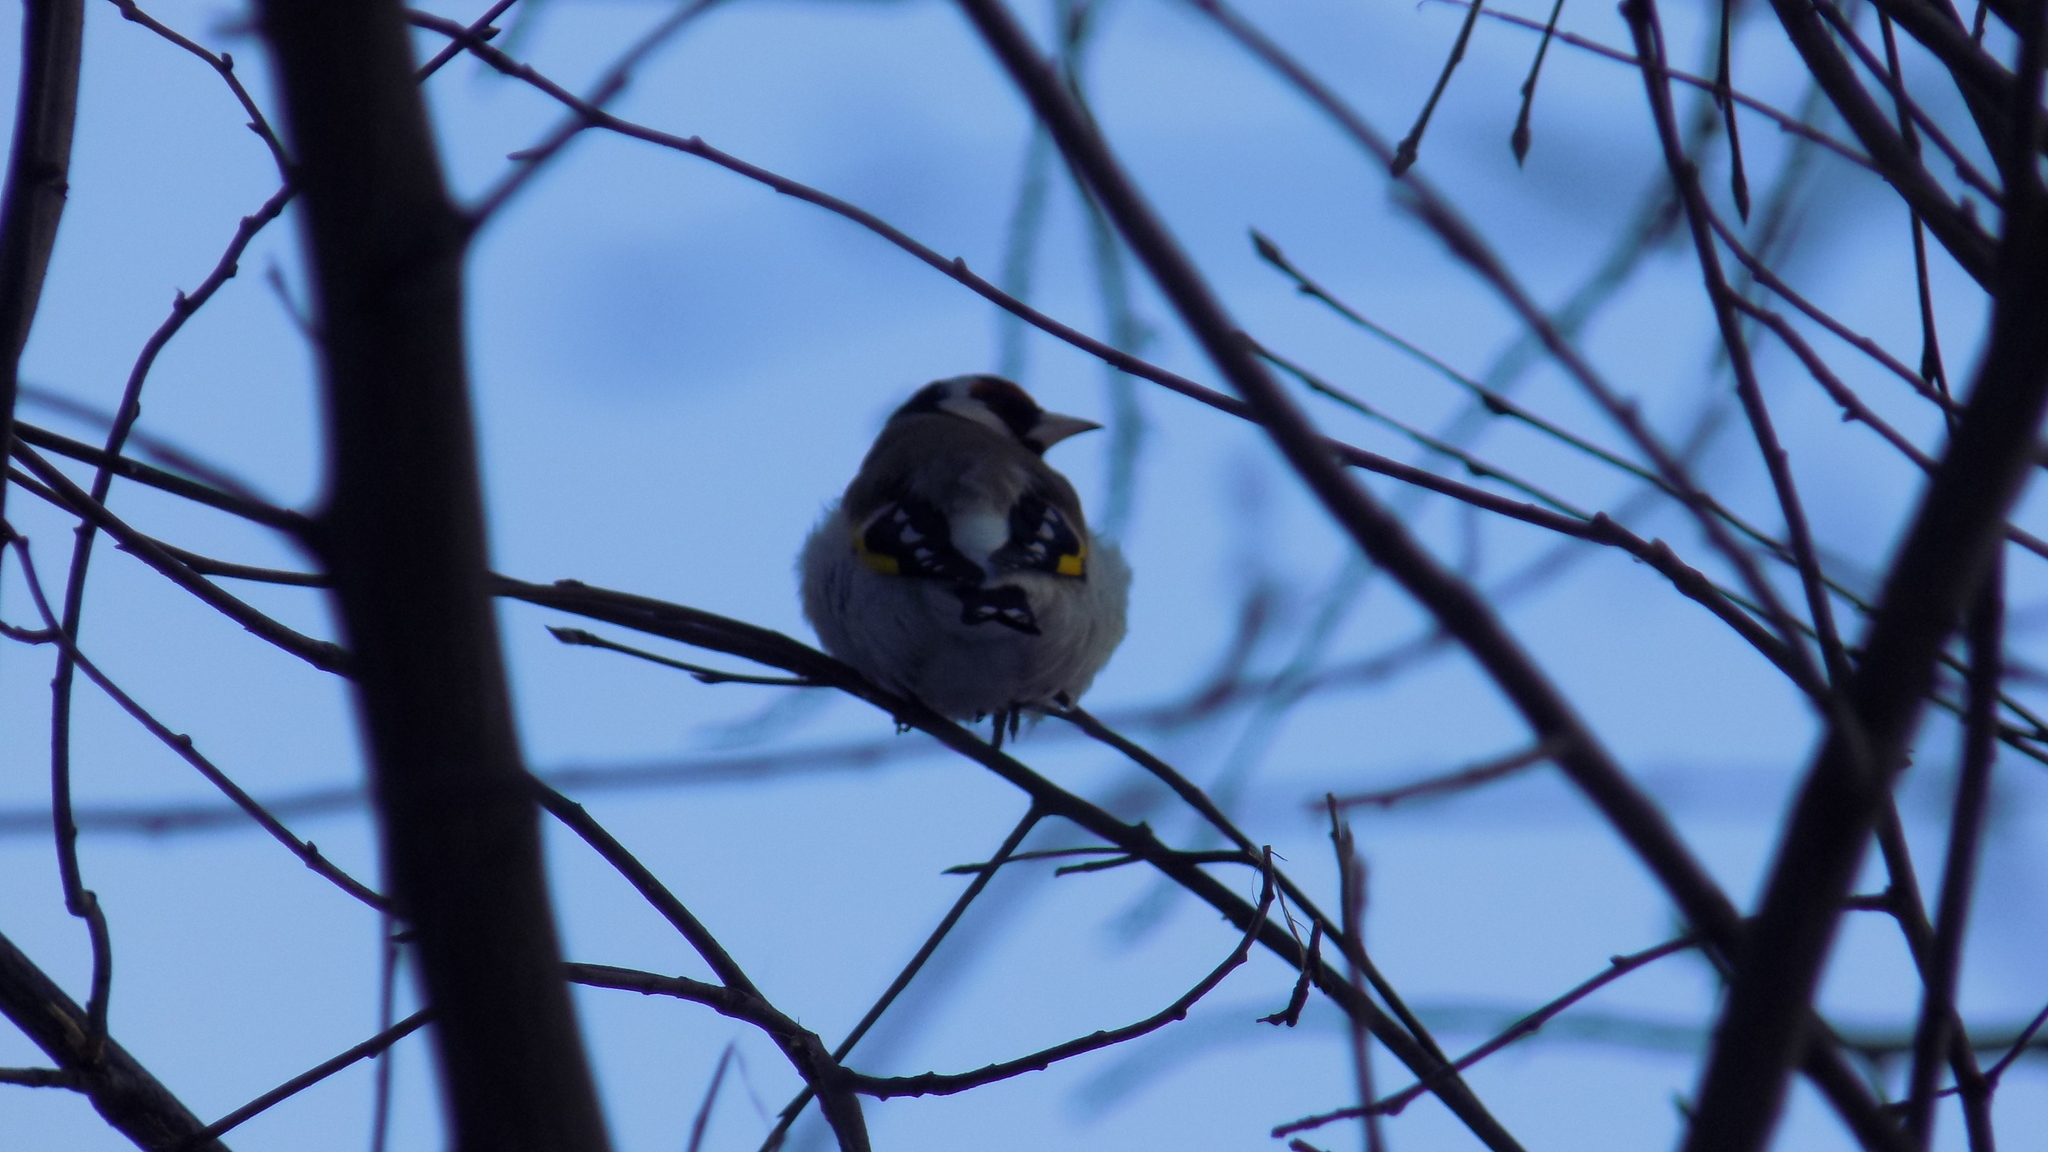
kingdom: Animalia
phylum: Chordata
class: Aves
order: Passeriformes
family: Fringillidae
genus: Carduelis
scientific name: Carduelis carduelis
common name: European goldfinch
